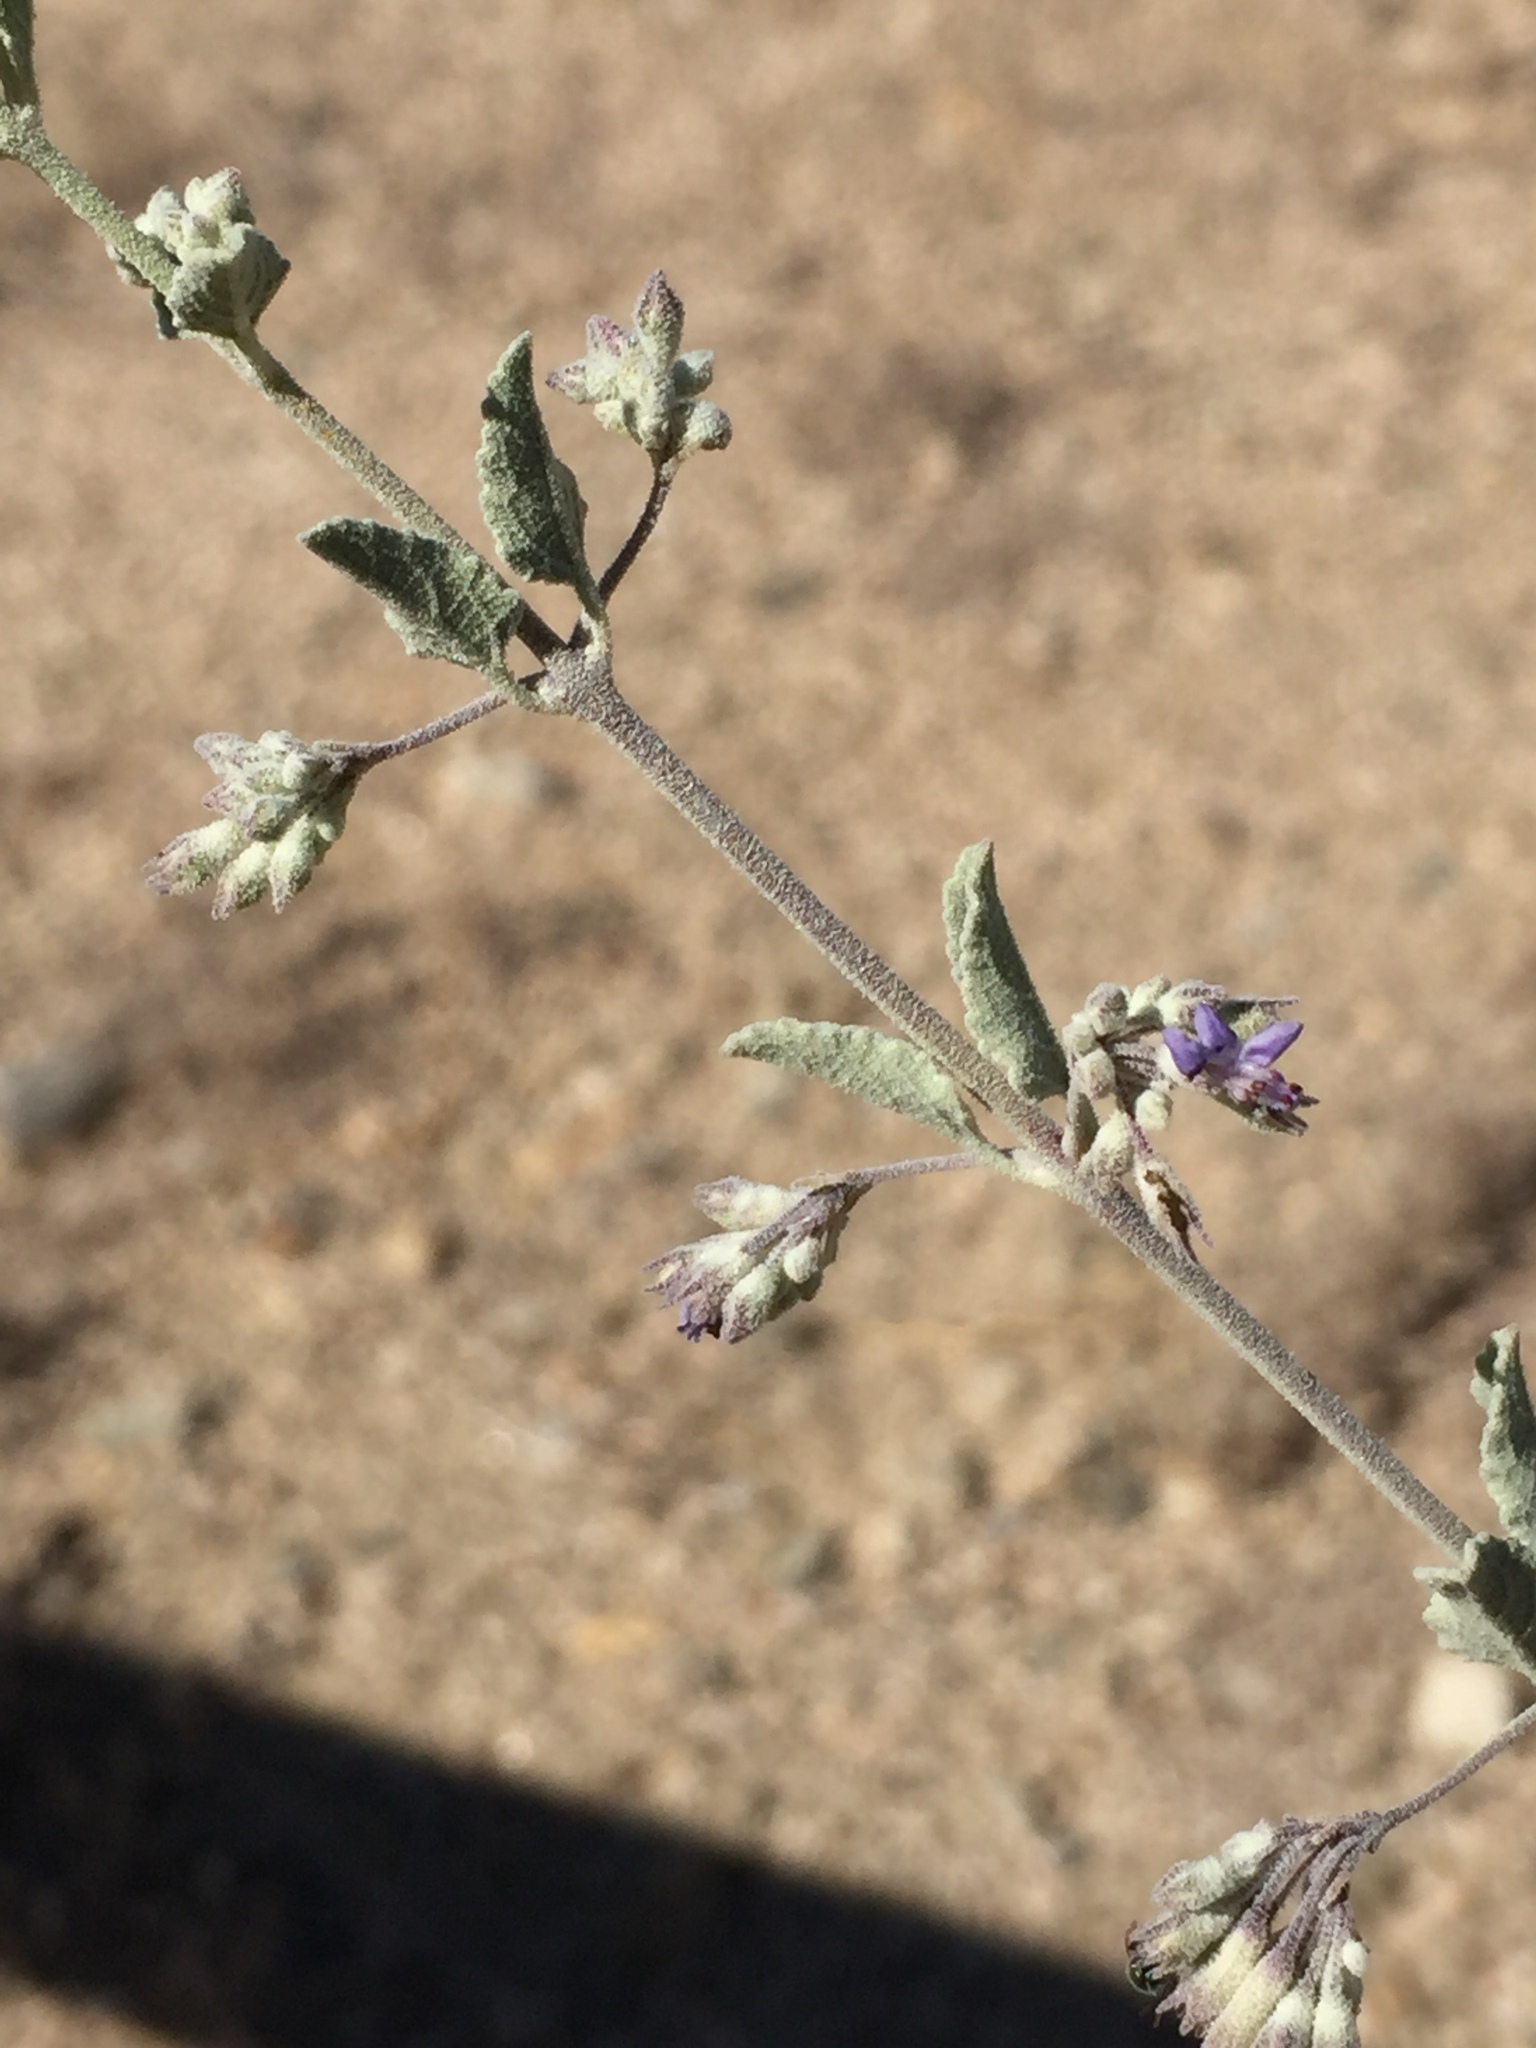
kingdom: Plantae
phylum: Tracheophyta
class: Magnoliopsida
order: Lamiales
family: Lamiaceae
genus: Condea
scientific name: Condea emoryi
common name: Chia
